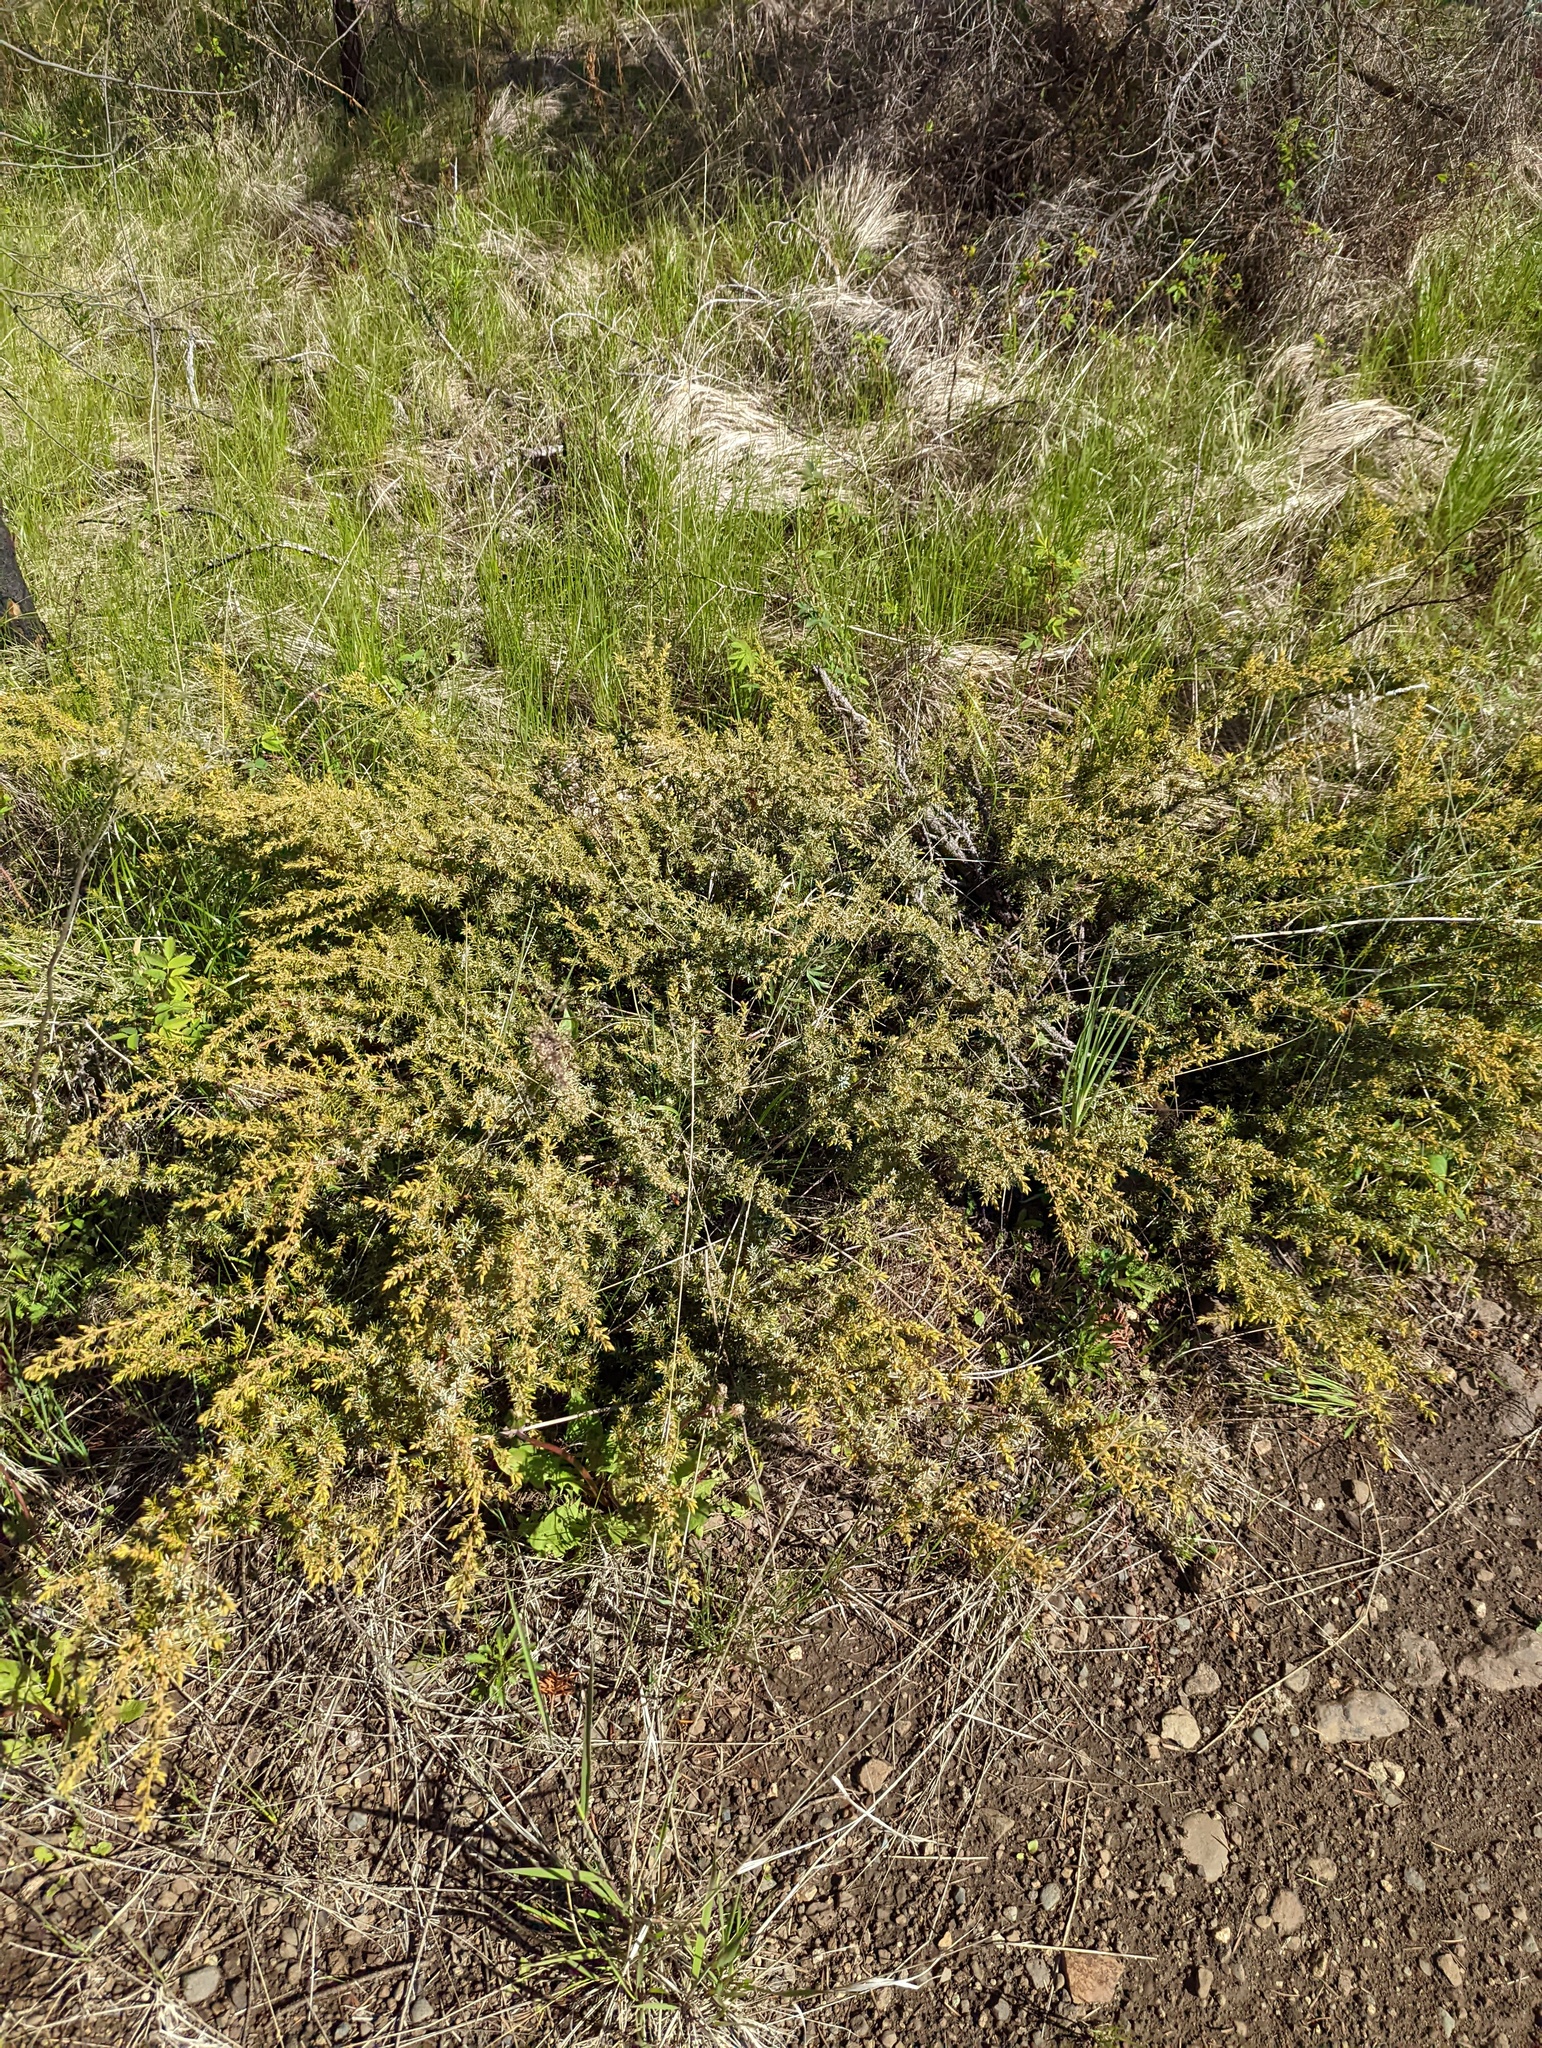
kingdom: Plantae
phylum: Tracheophyta
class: Pinopsida
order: Pinales
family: Cupressaceae
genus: Juniperus
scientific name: Juniperus communis
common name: Common juniper
